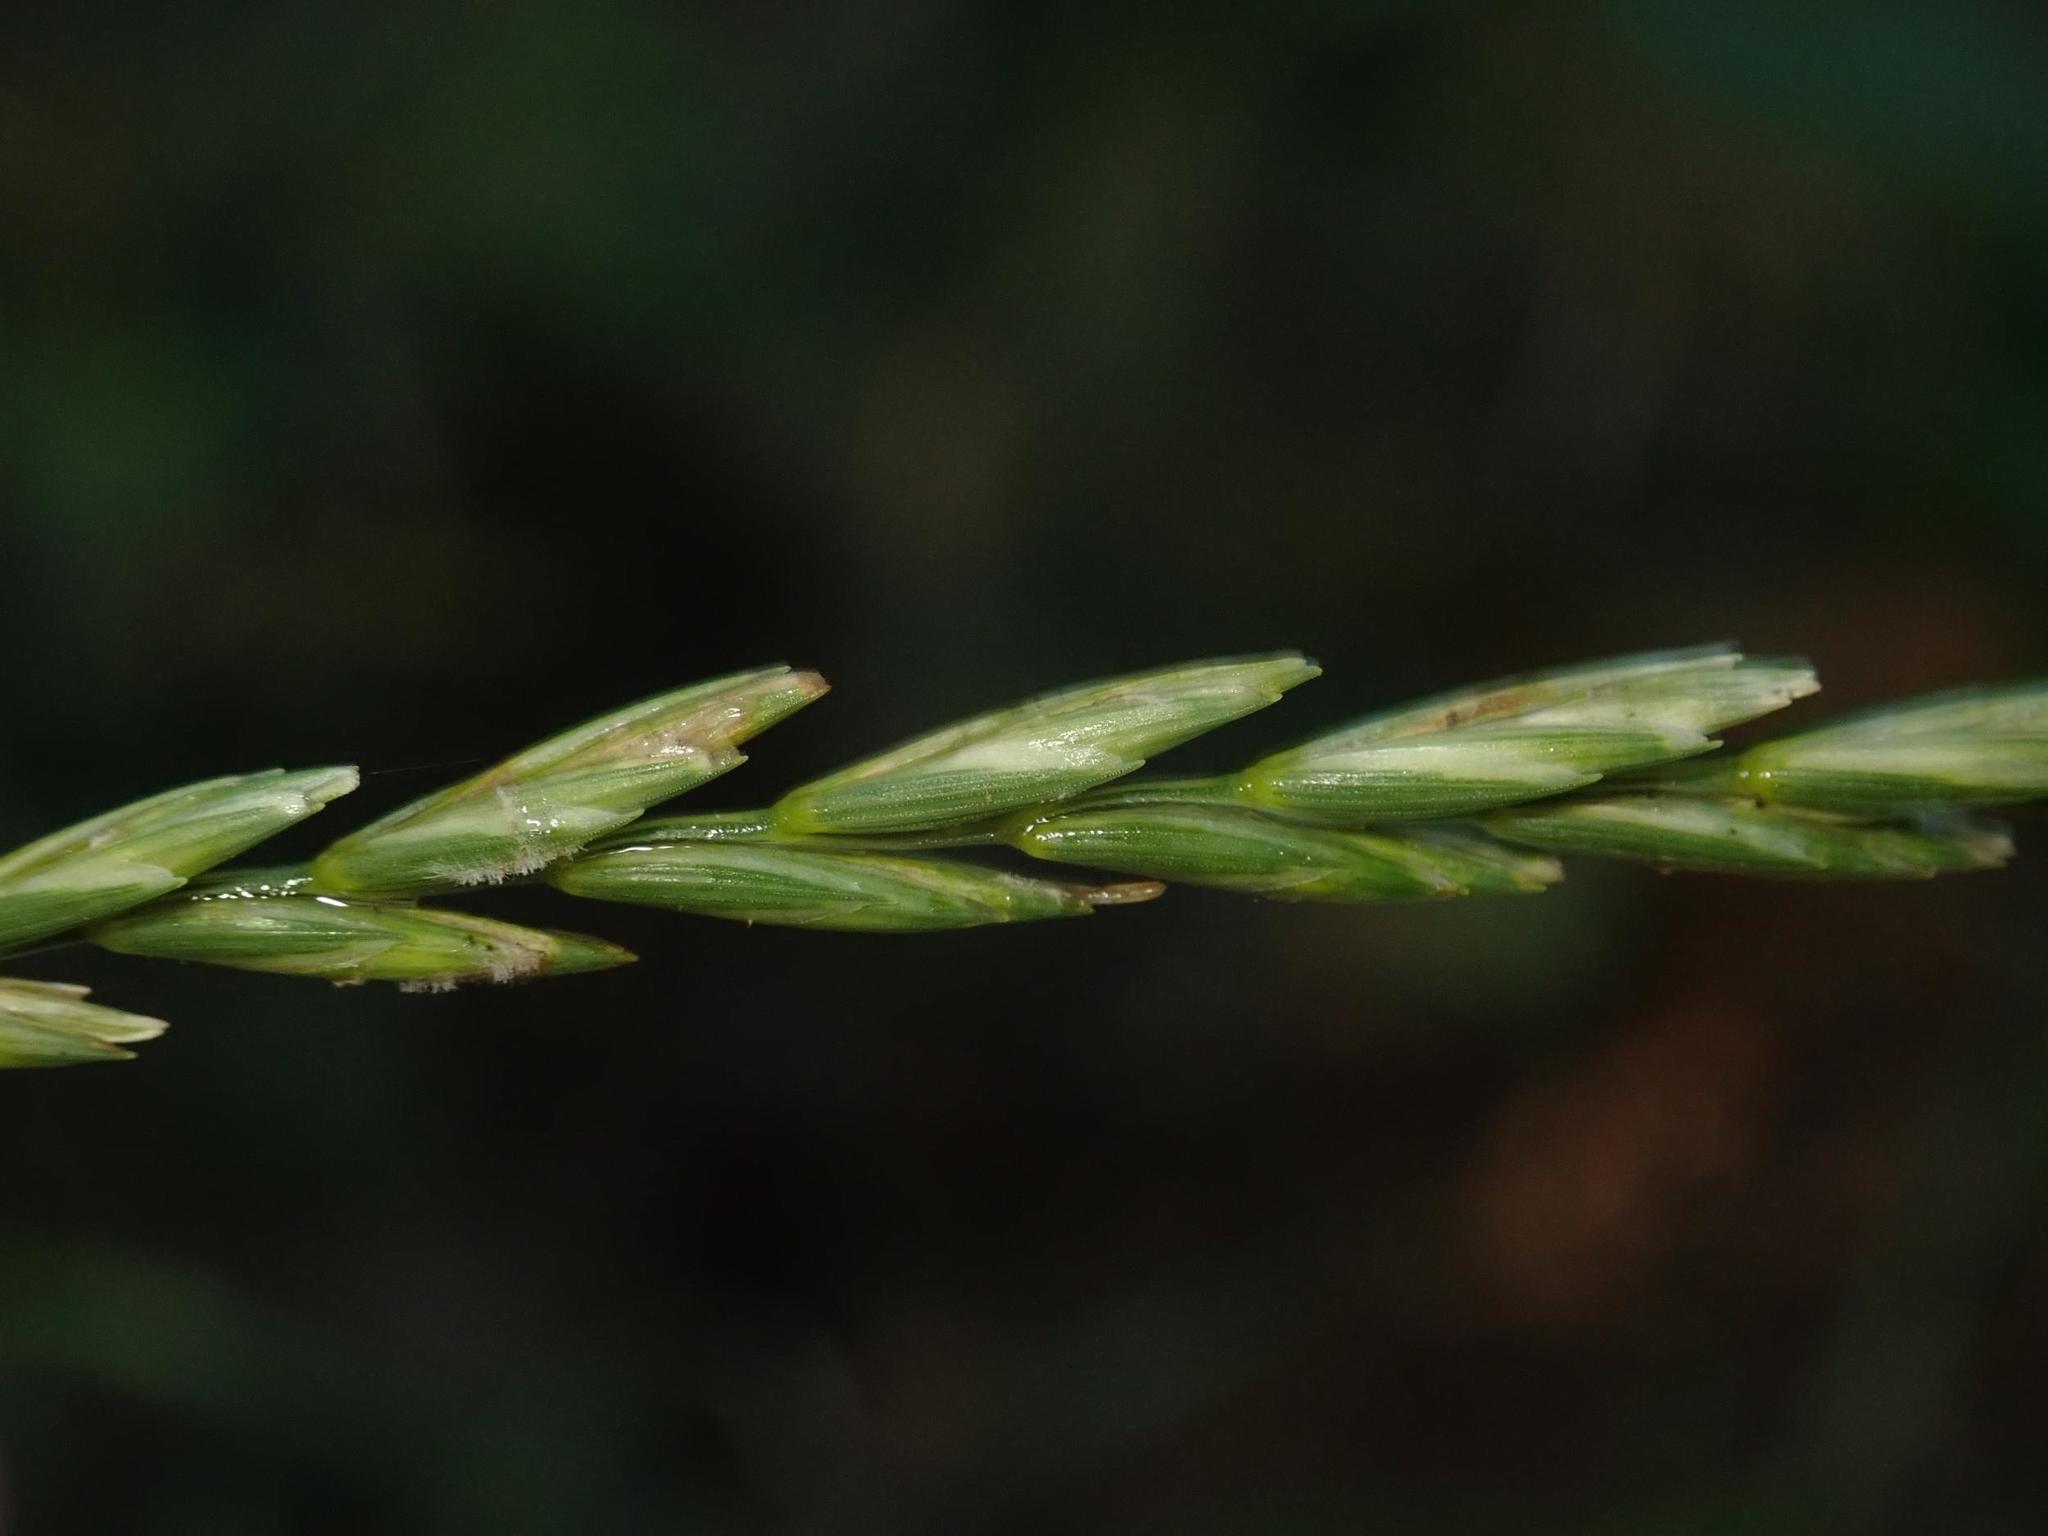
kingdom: Plantae
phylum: Tracheophyta
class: Liliopsida
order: Poales
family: Poaceae
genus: Elymus
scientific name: Elymus repens
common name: Quackgrass
